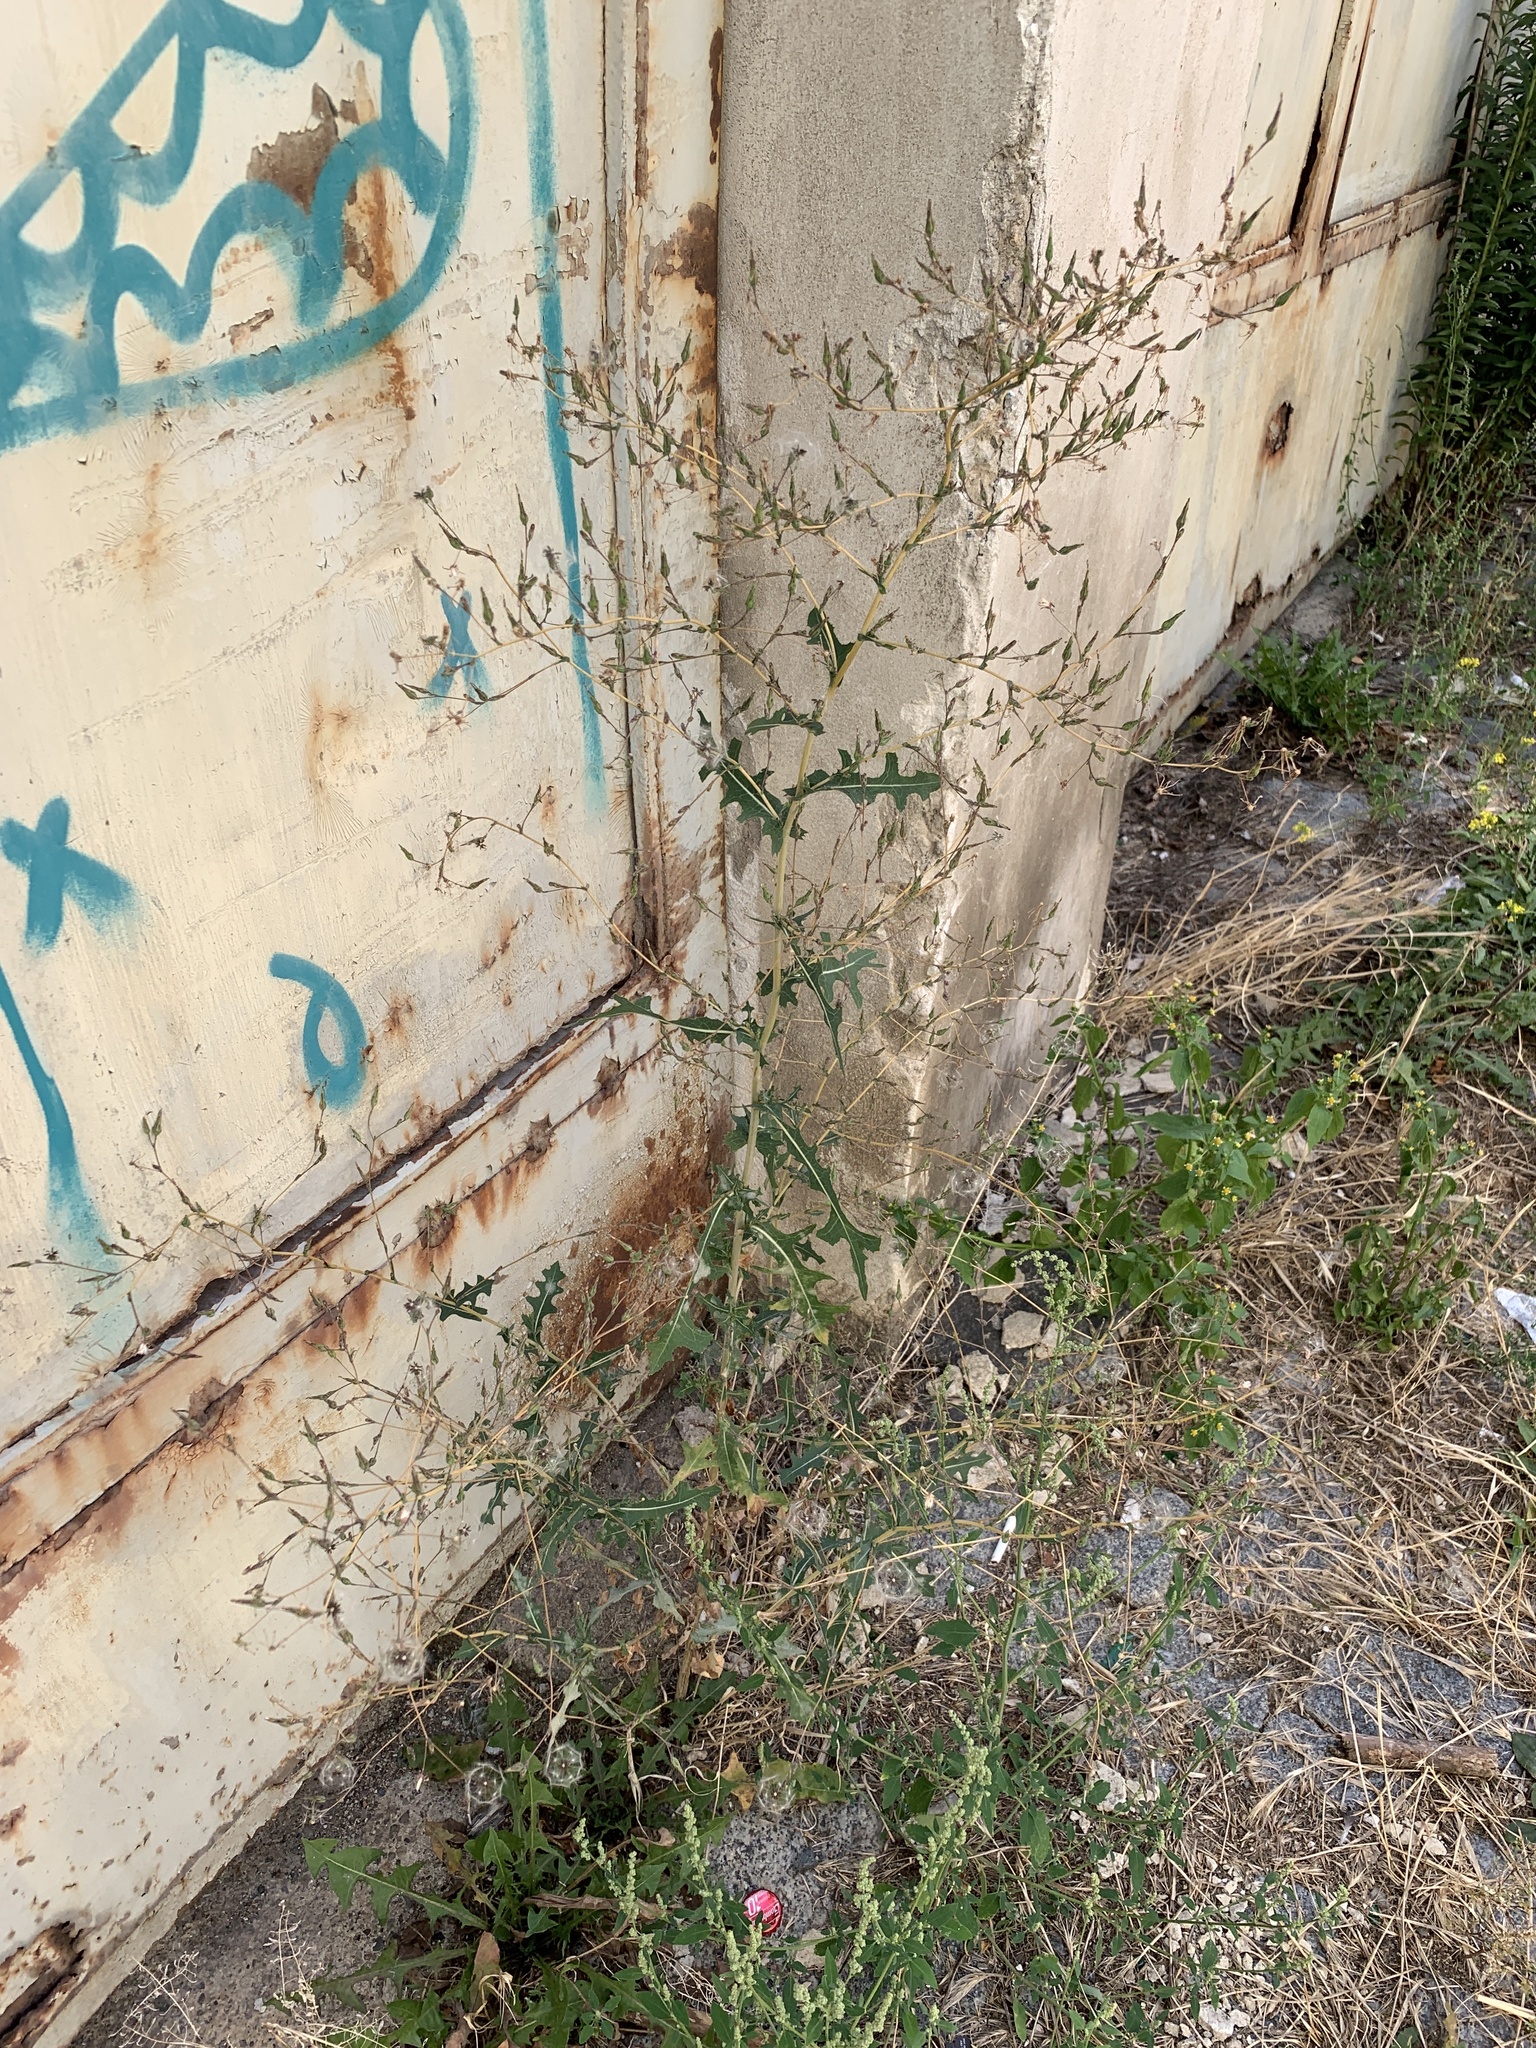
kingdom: Plantae
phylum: Tracheophyta
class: Magnoliopsida
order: Asterales
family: Asteraceae
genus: Lactuca
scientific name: Lactuca serriola
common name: Prickly lettuce
